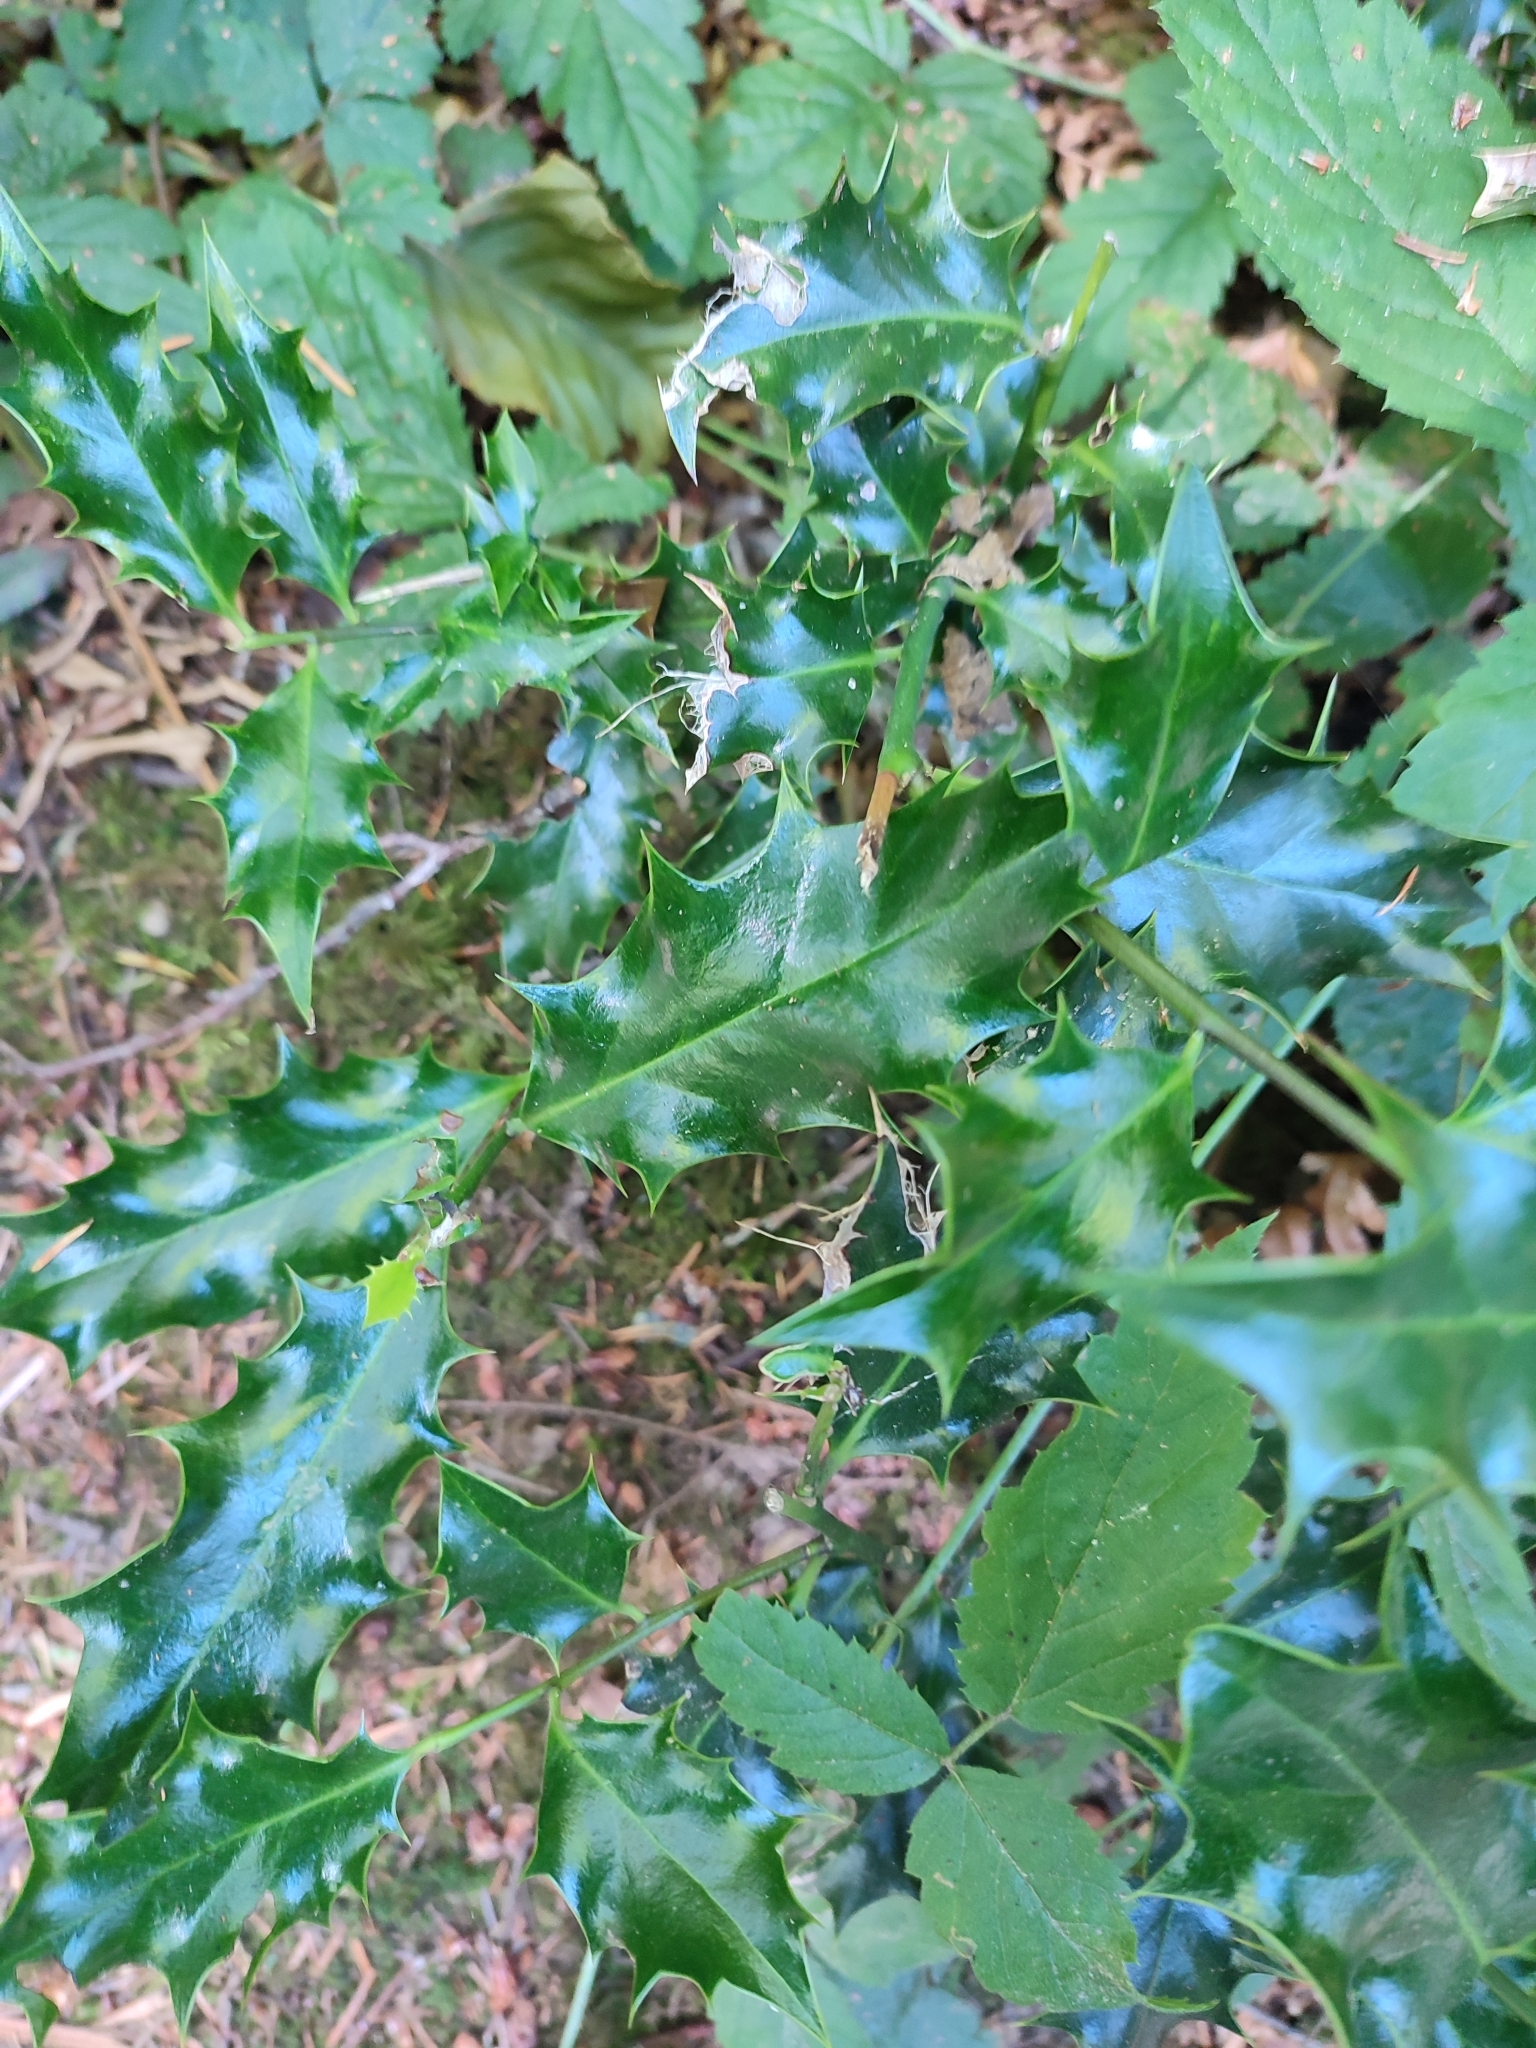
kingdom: Plantae
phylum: Tracheophyta
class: Magnoliopsida
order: Aquifoliales
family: Aquifoliaceae
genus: Ilex
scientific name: Ilex aquifolium
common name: English holly
